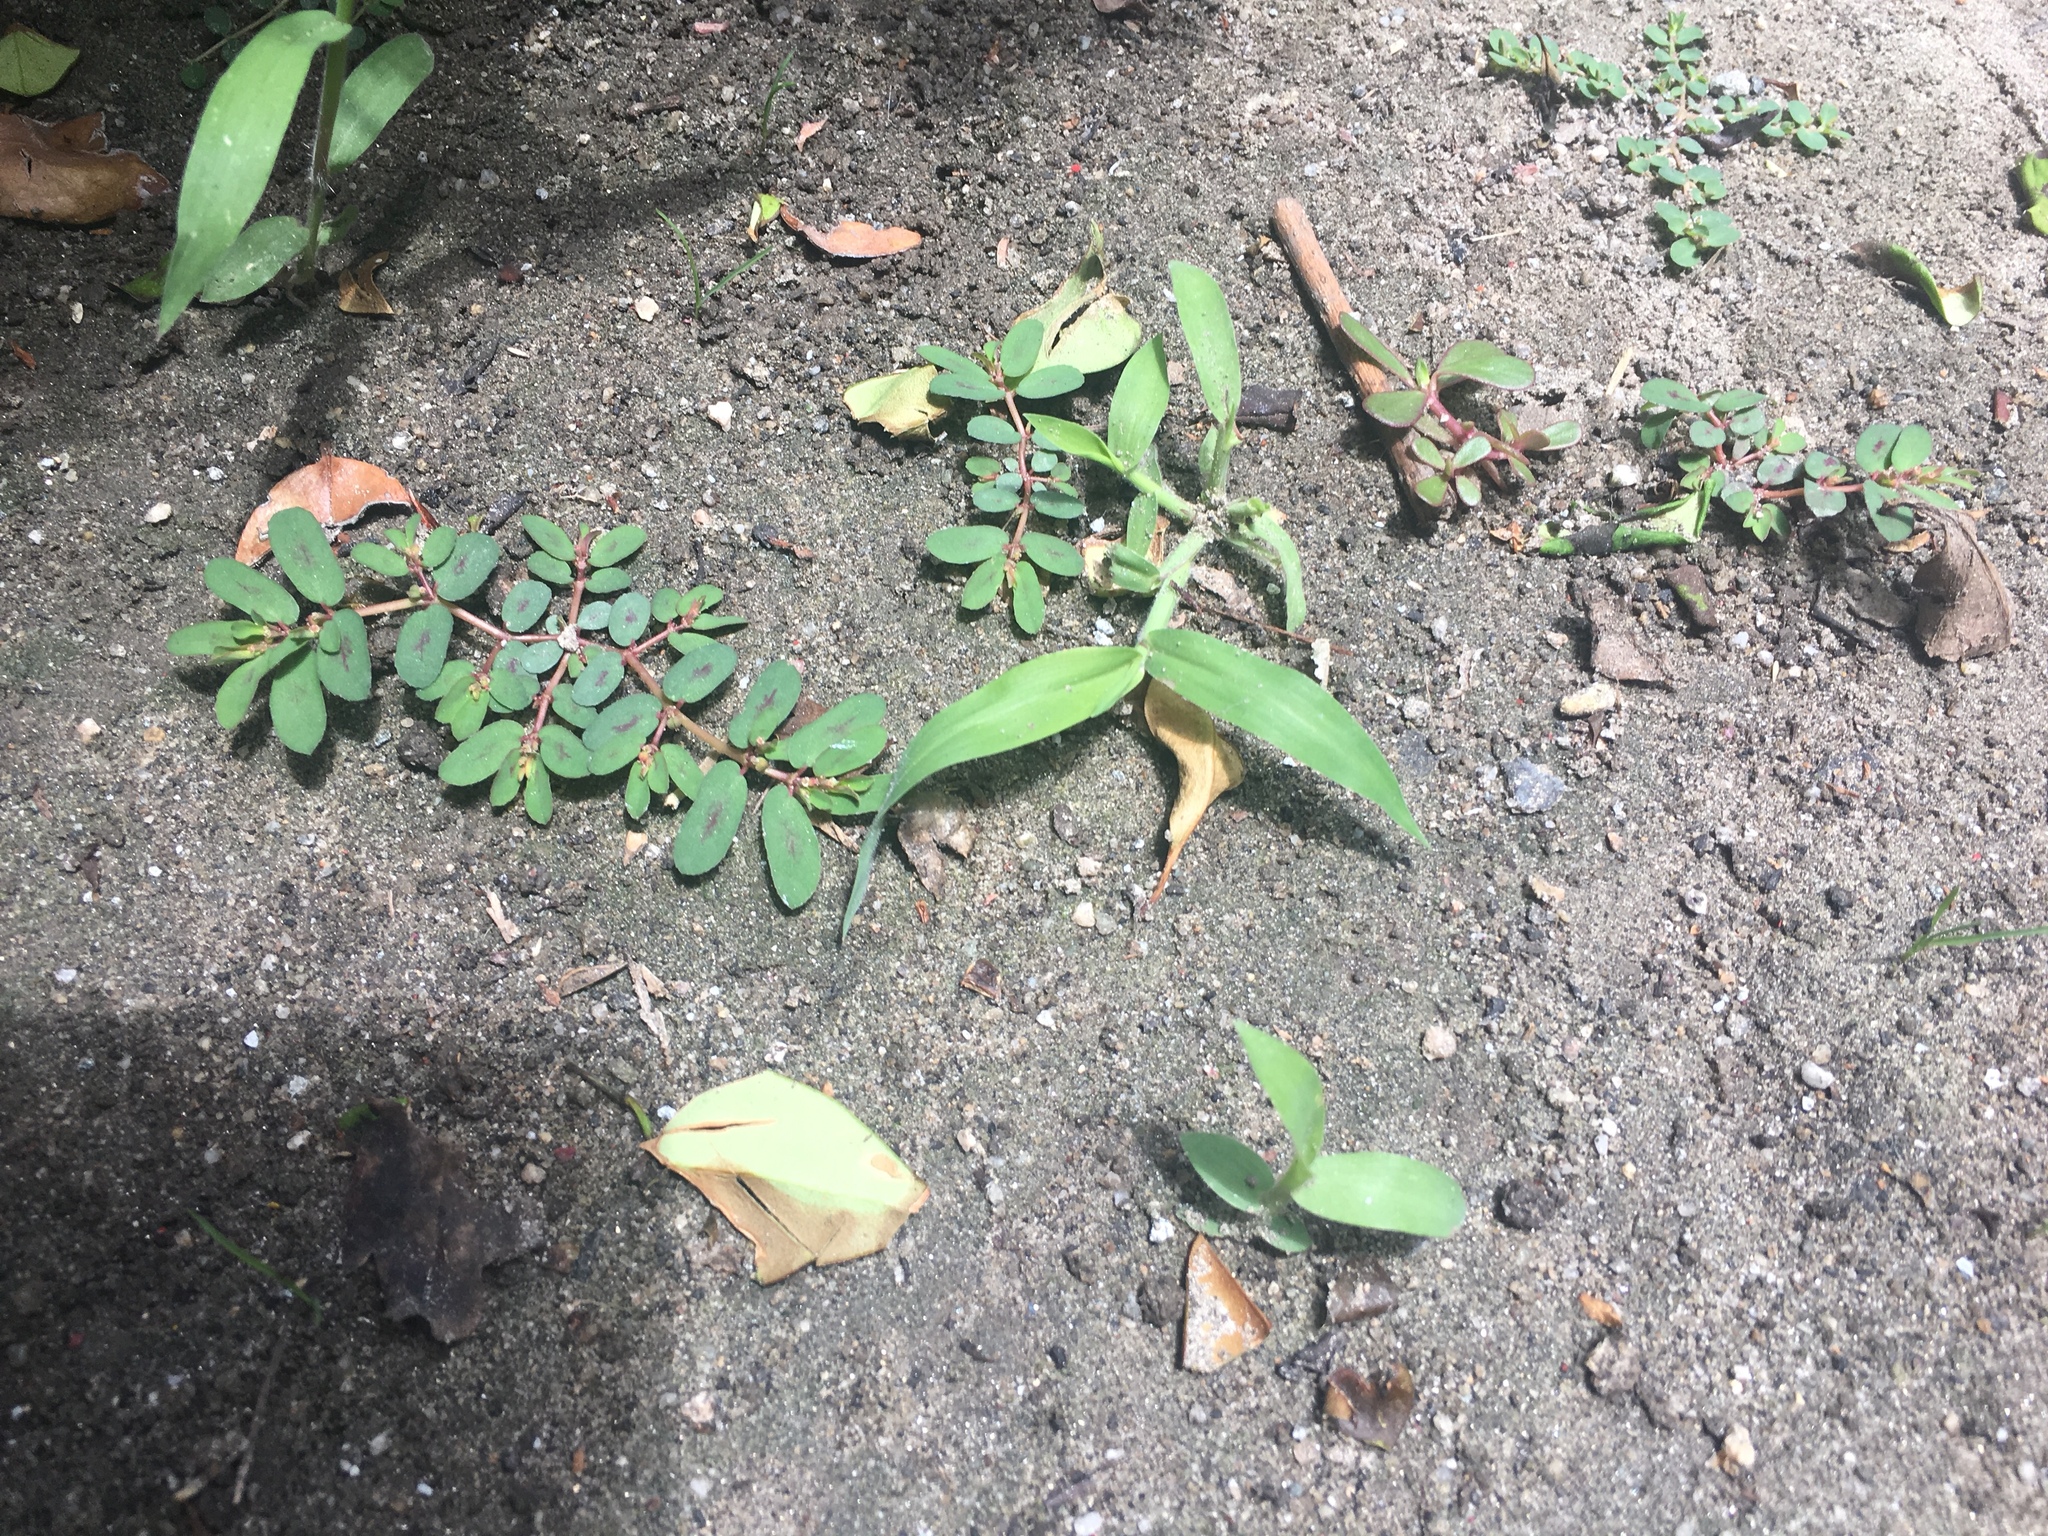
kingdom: Plantae
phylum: Tracheophyta
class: Magnoliopsida
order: Malpighiales
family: Euphorbiaceae
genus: Euphorbia
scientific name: Euphorbia serpillifolia
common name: Thyme-leaf spurge
